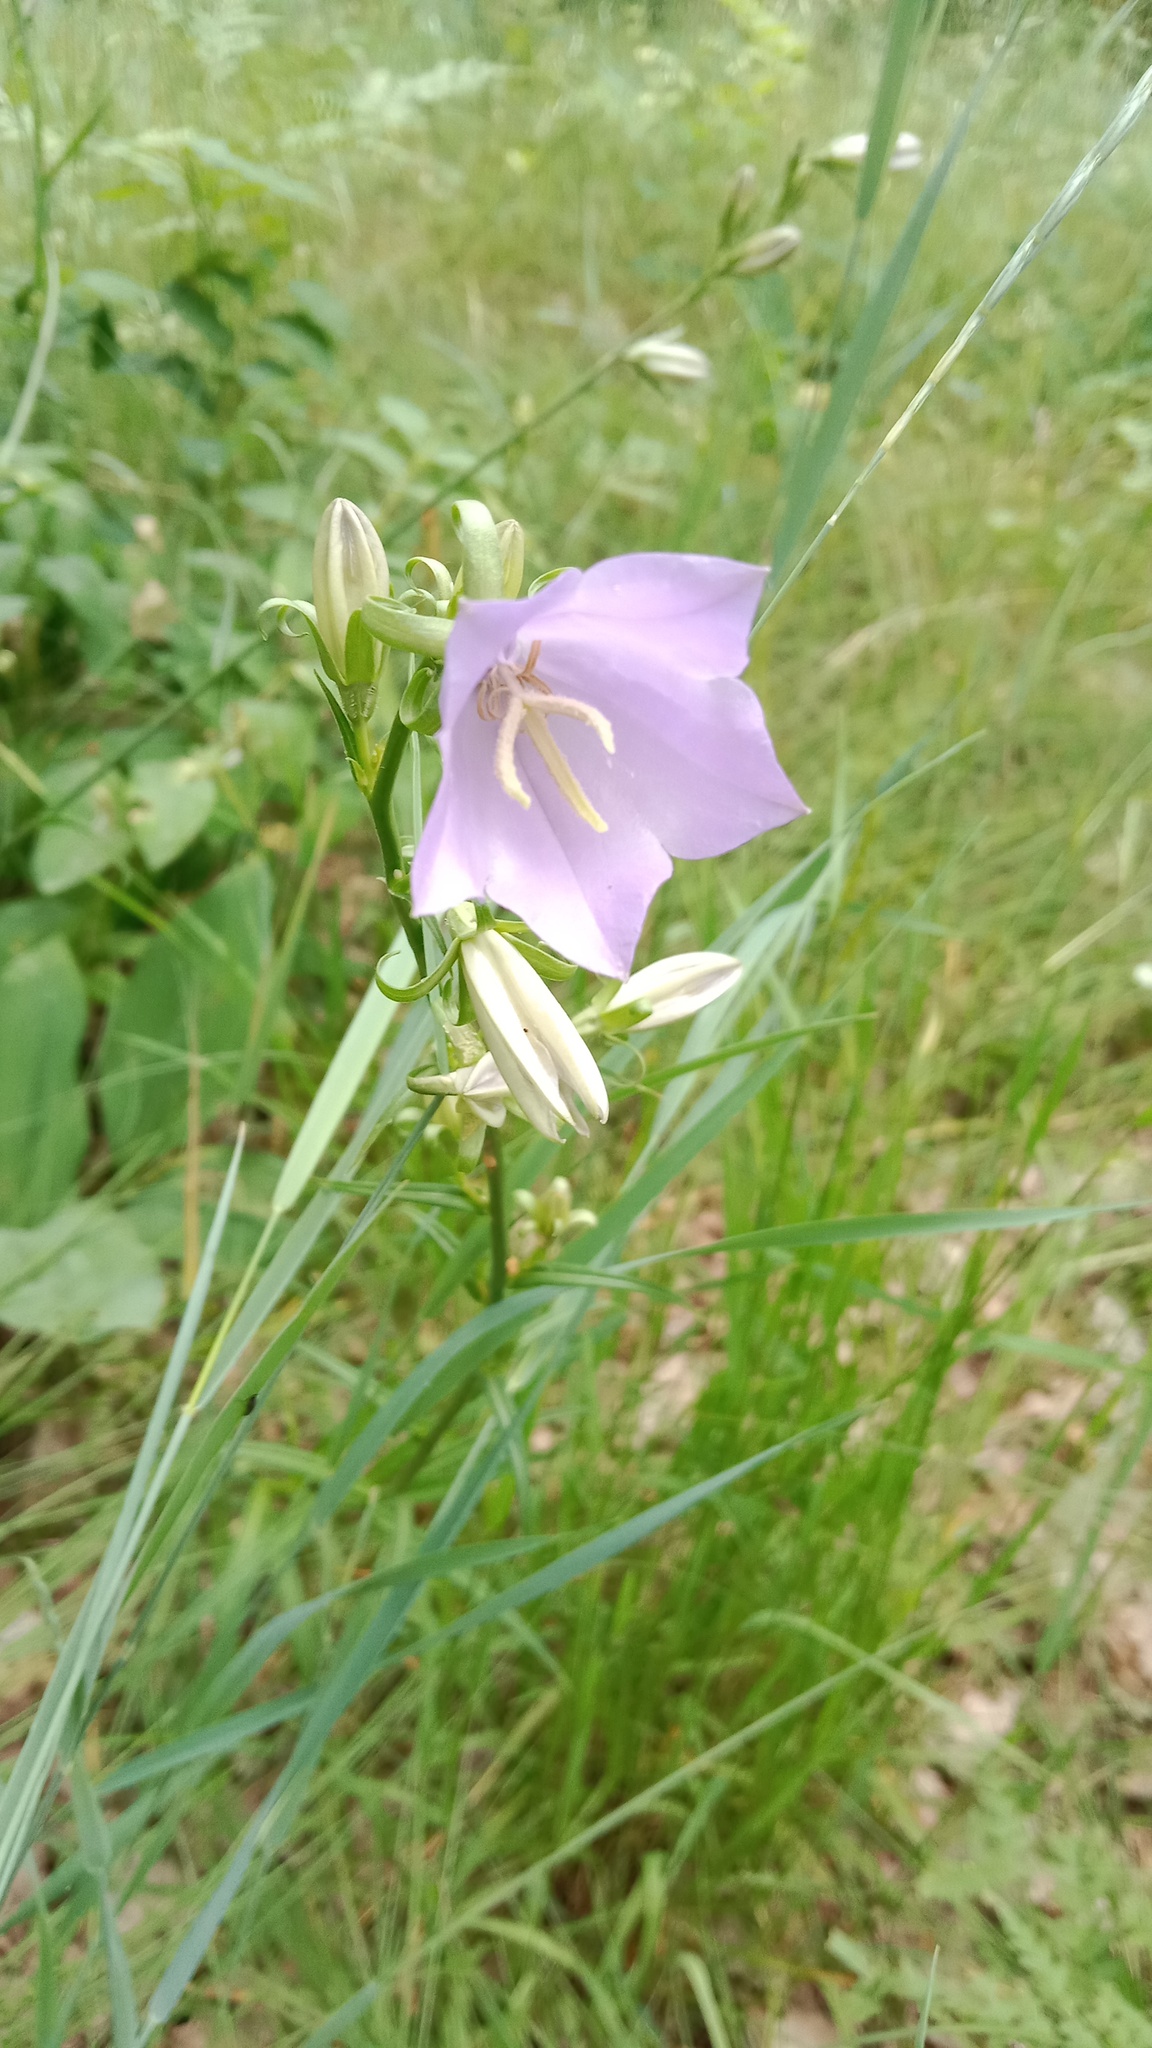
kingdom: Plantae
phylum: Tracheophyta
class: Magnoliopsida
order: Asterales
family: Campanulaceae
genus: Campanula
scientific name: Campanula persicifolia
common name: Peach-leaved bellflower
